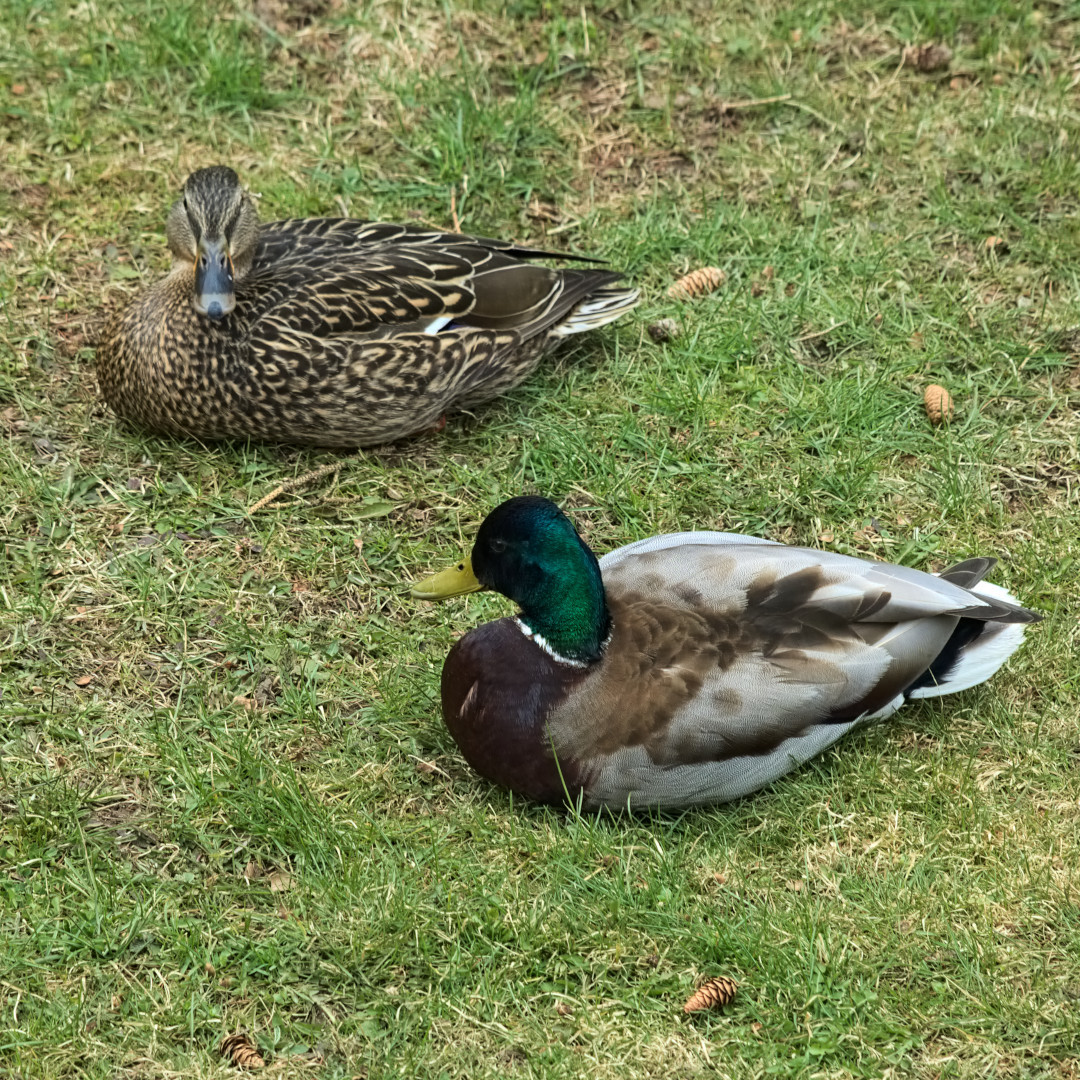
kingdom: Animalia
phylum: Chordata
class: Aves
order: Anseriformes
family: Anatidae
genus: Anas
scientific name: Anas platyrhynchos
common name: Mallard
